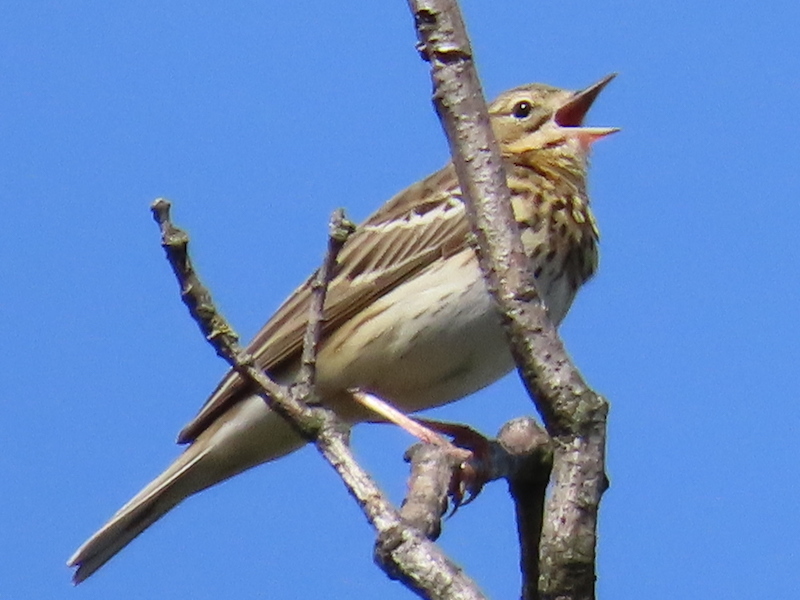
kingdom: Animalia
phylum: Chordata
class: Aves
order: Passeriformes
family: Motacillidae
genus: Anthus
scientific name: Anthus trivialis
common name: Tree pipit
